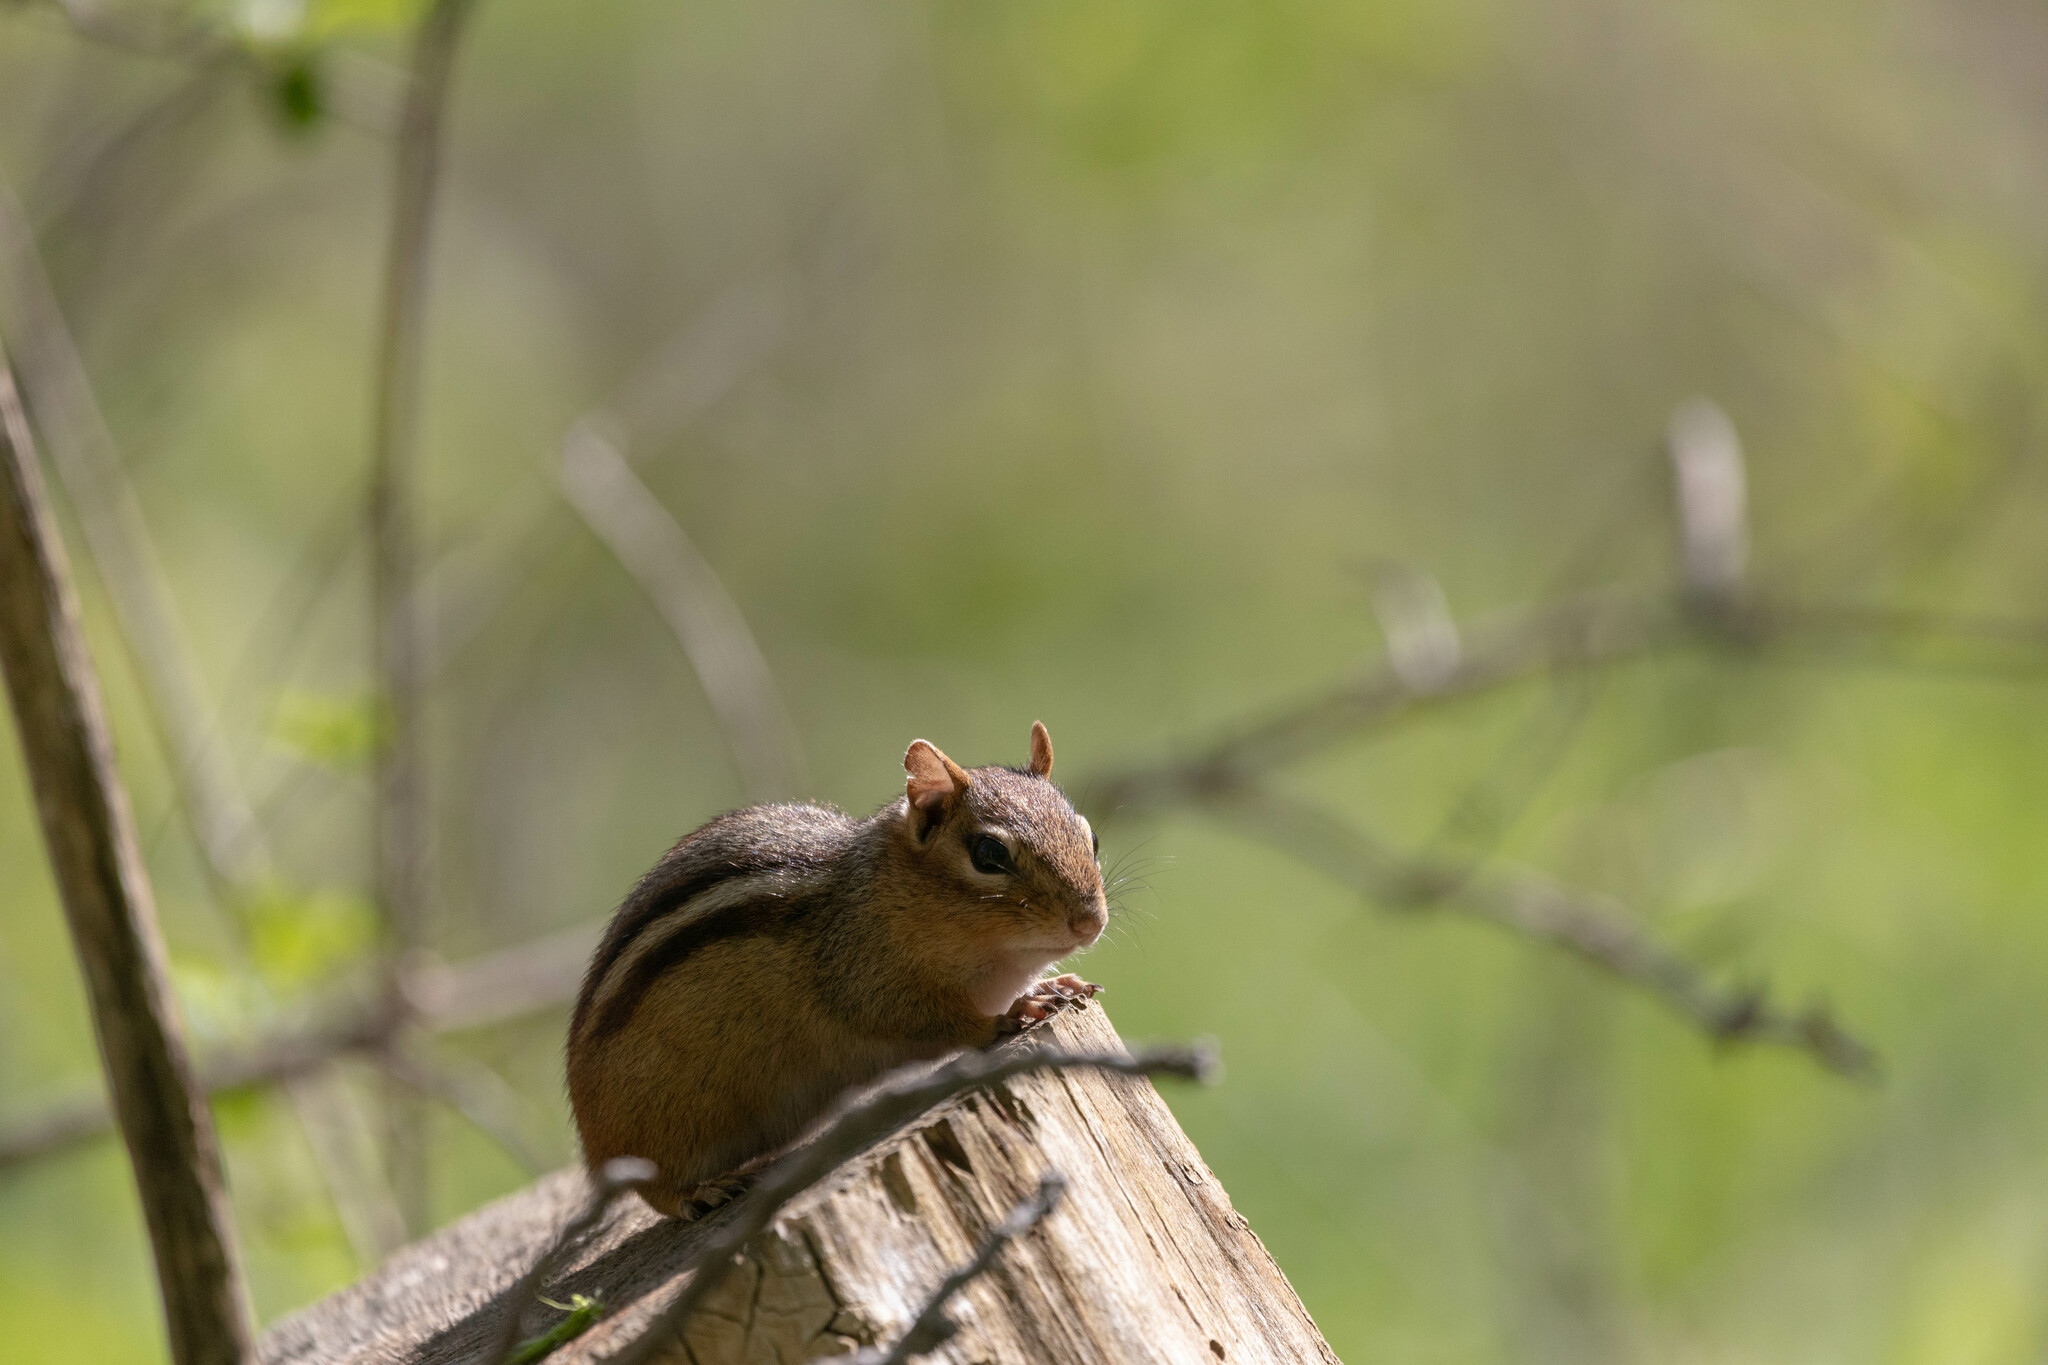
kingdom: Animalia
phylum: Chordata
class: Mammalia
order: Rodentia
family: Sciuridae
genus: Tamias
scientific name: Tamias striatus
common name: Eastern chipmunk
